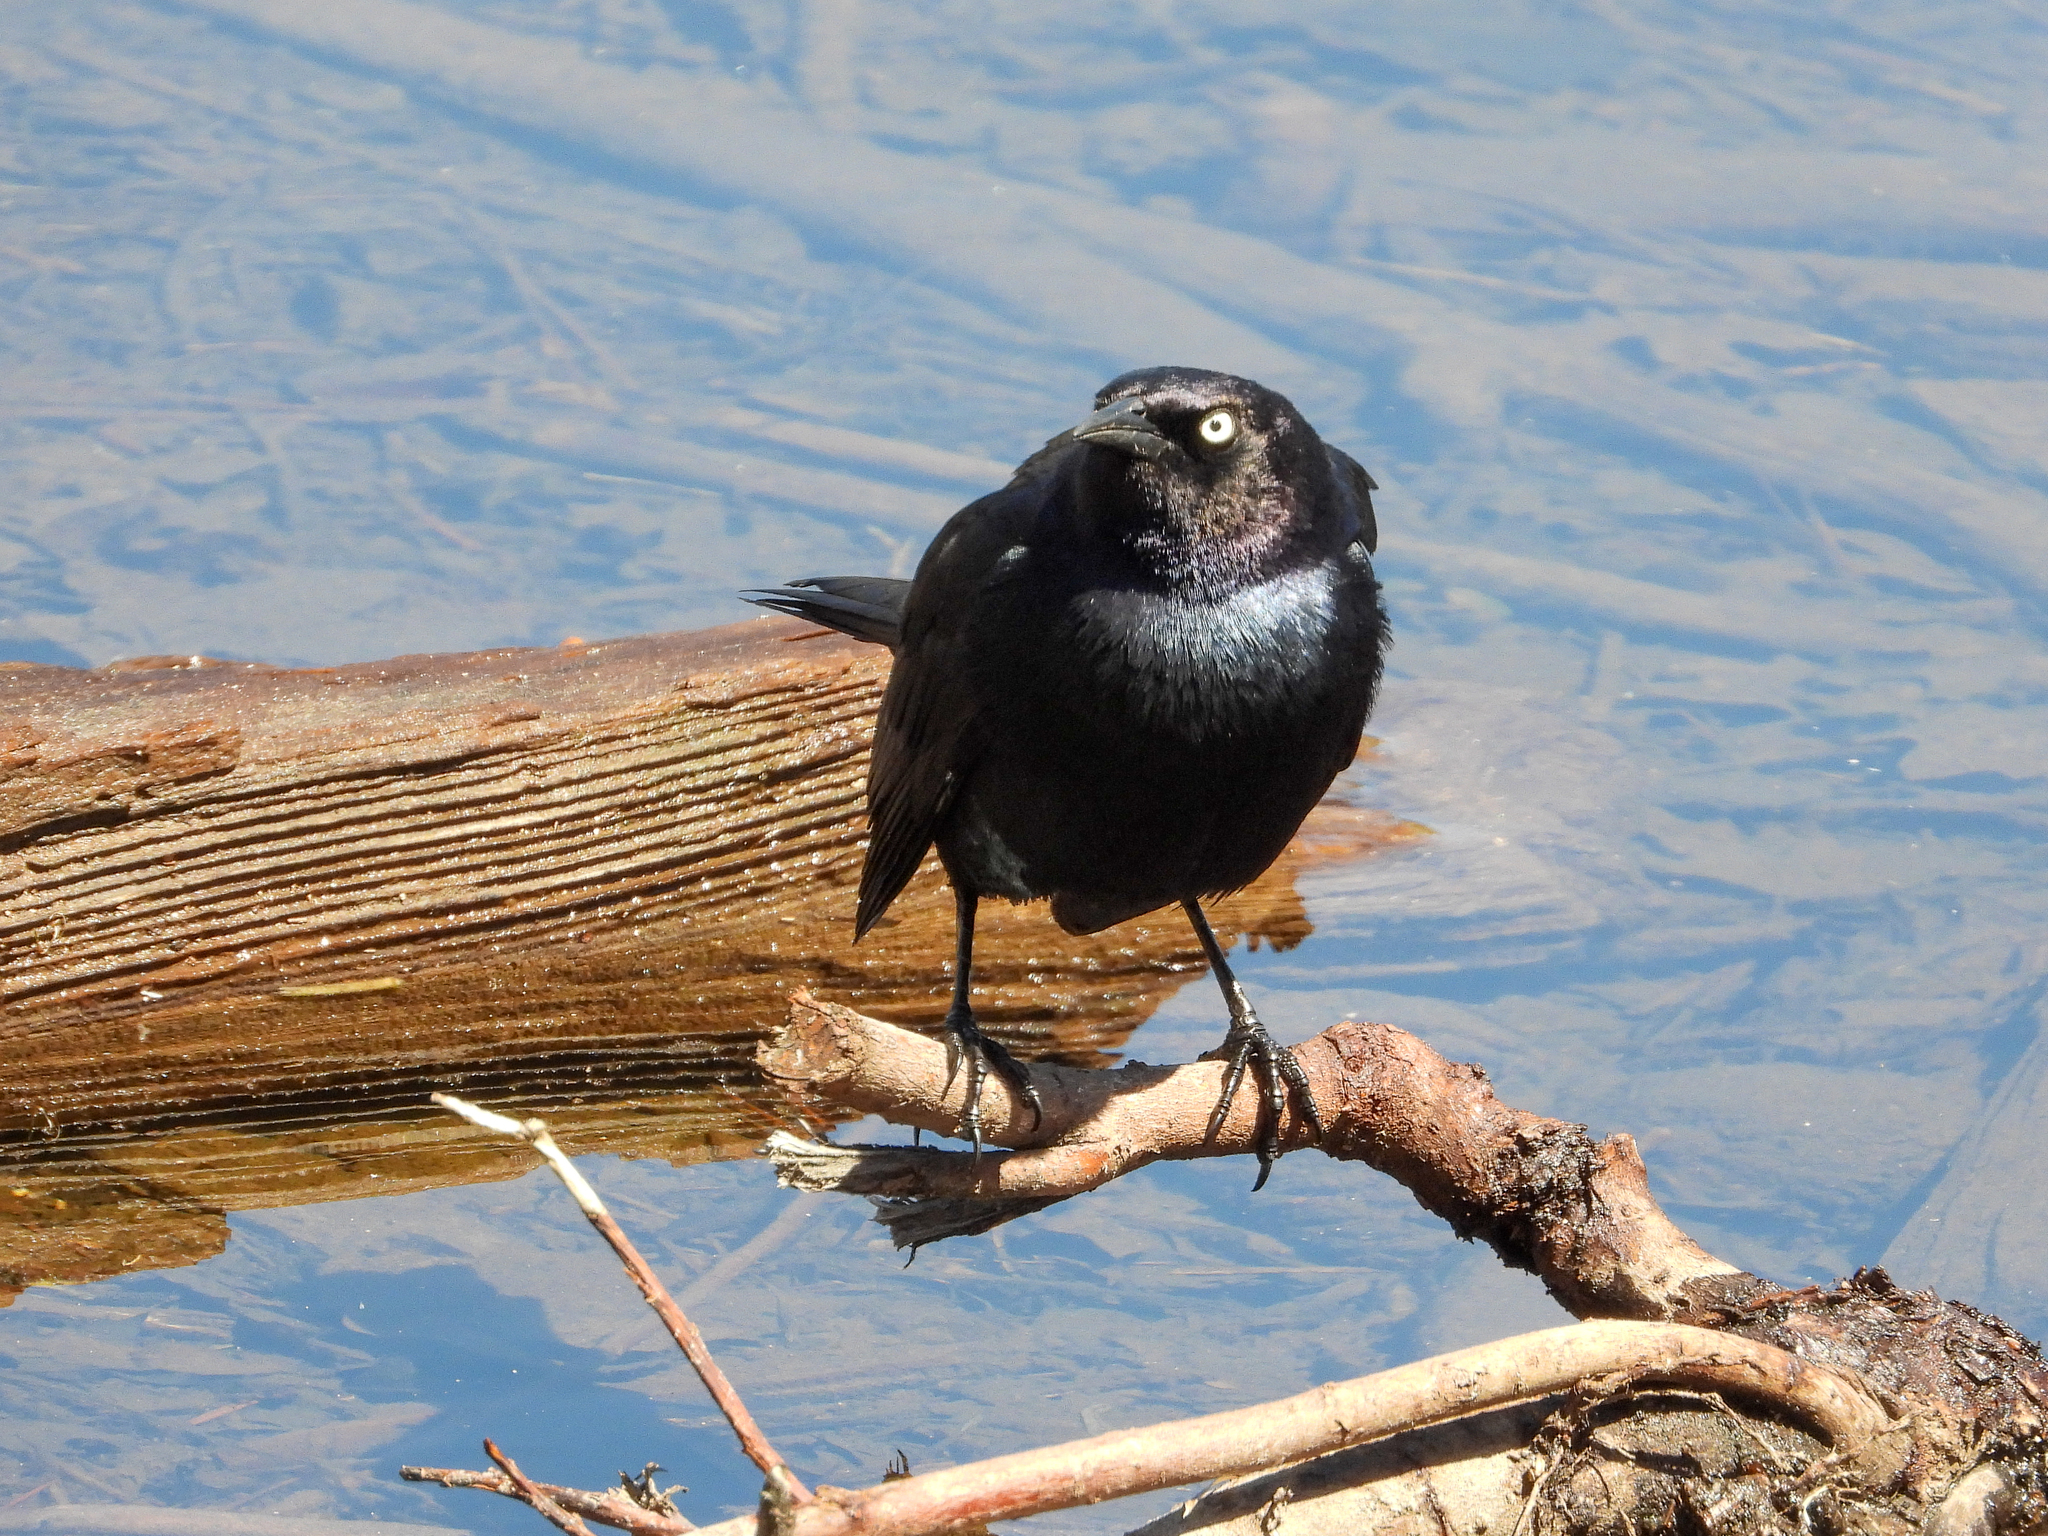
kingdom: Animalia
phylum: Chordata
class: Aves
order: Passeriformes
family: Icteridae
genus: Euphagus
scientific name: Euphagus cyanocephalus
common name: Brewer's blackbird
